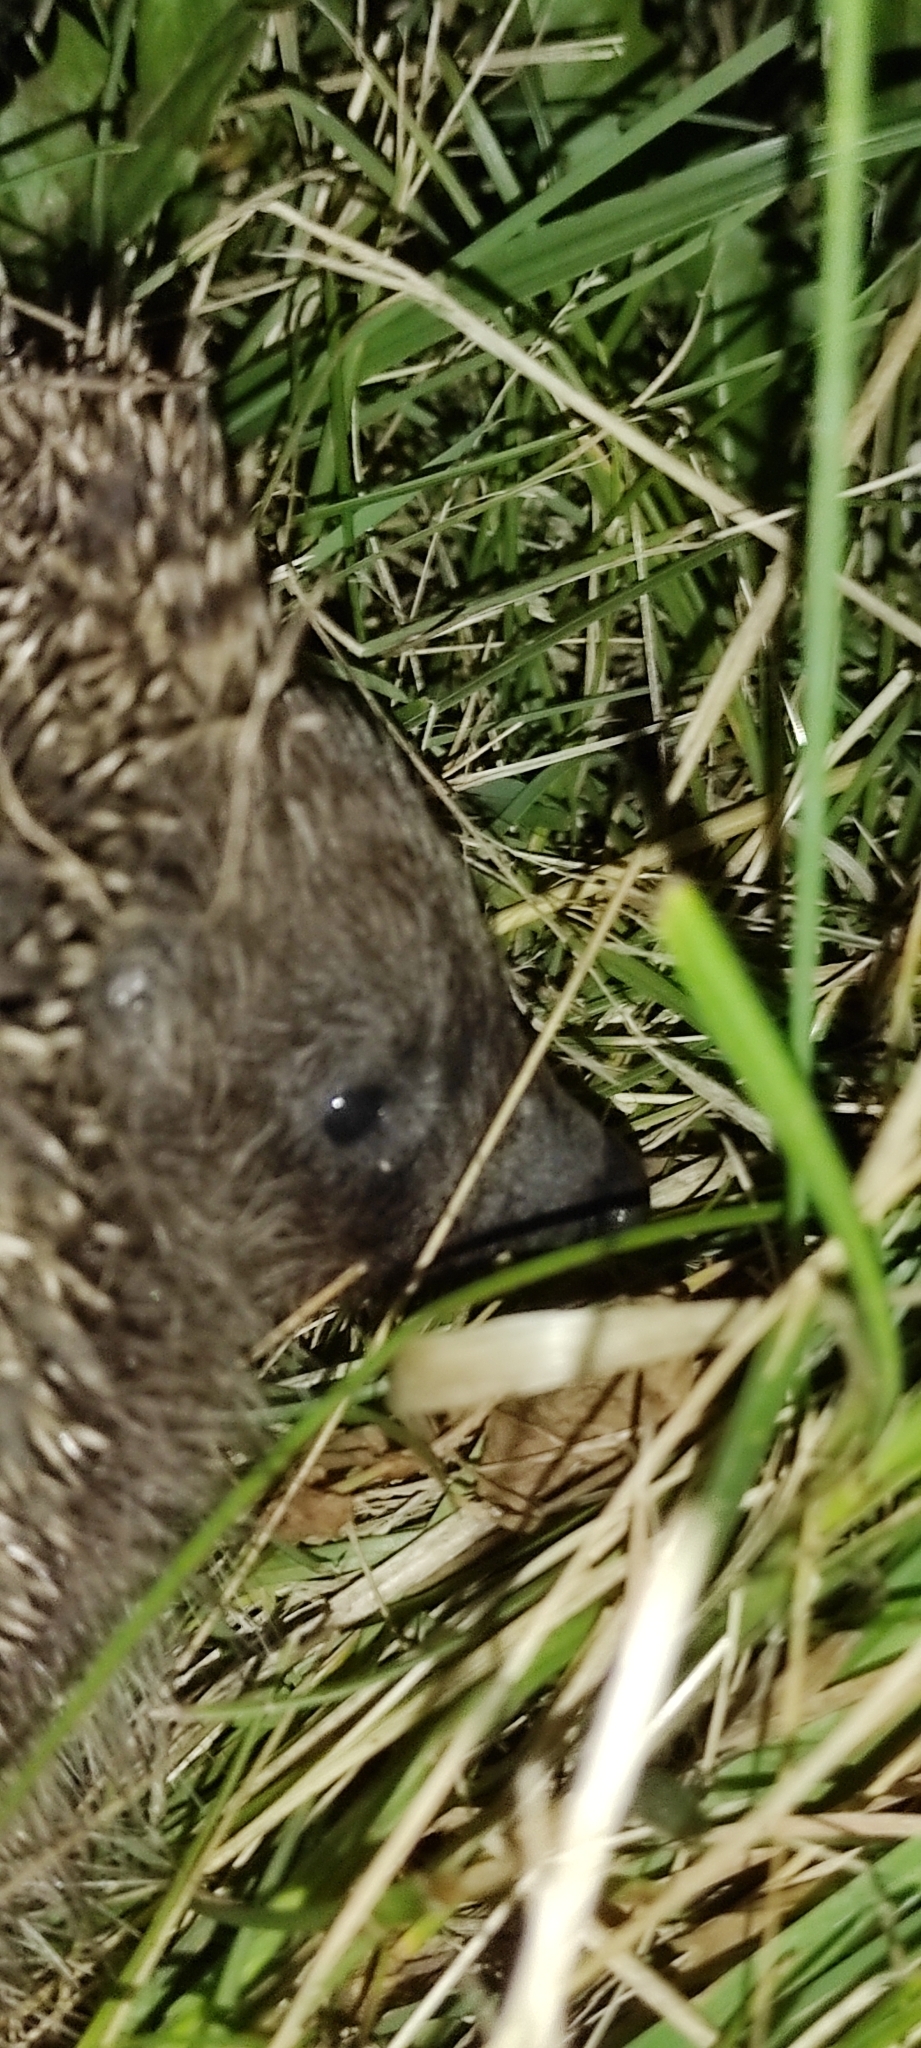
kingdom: Animalia
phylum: Chordata
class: Mammalia
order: Erinaceomorpha
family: Erinaceidae
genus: Erinaceus
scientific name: Erinaceus roumanicus
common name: Northern white-breasted hedgehog
